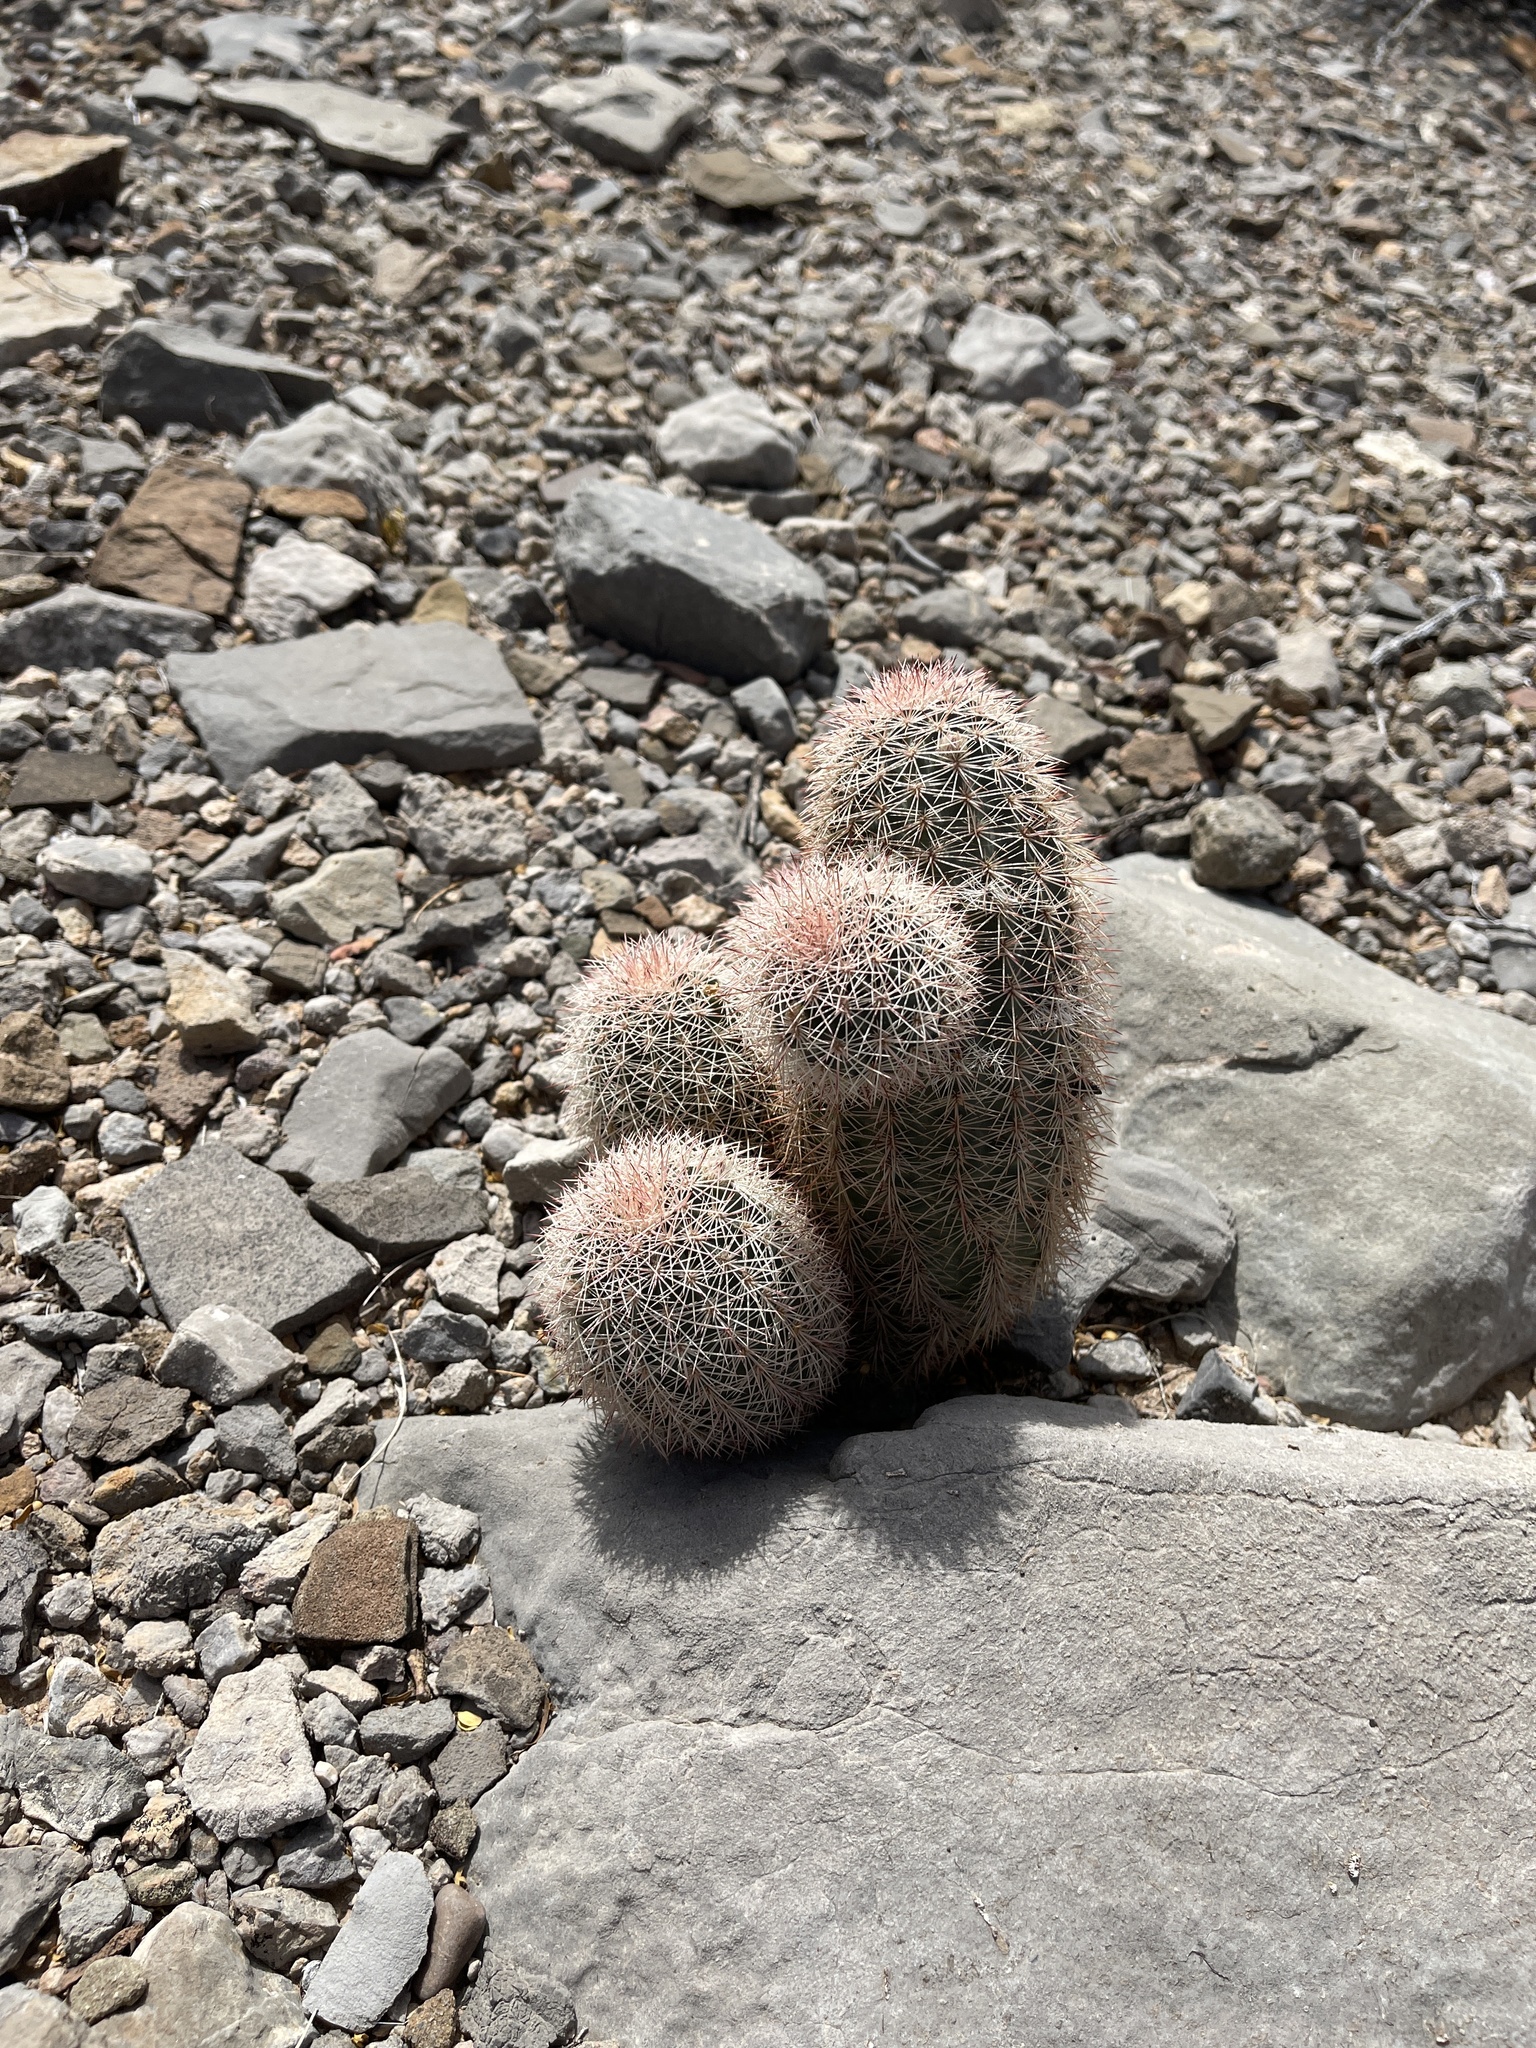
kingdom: Plantae
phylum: Tracheophyta
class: Magnoliopsida
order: Caryophyllales
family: Cactaceae
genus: Echinocereus
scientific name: Echinocereus dasyacanthus
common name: Spiny hedgehog cactus
